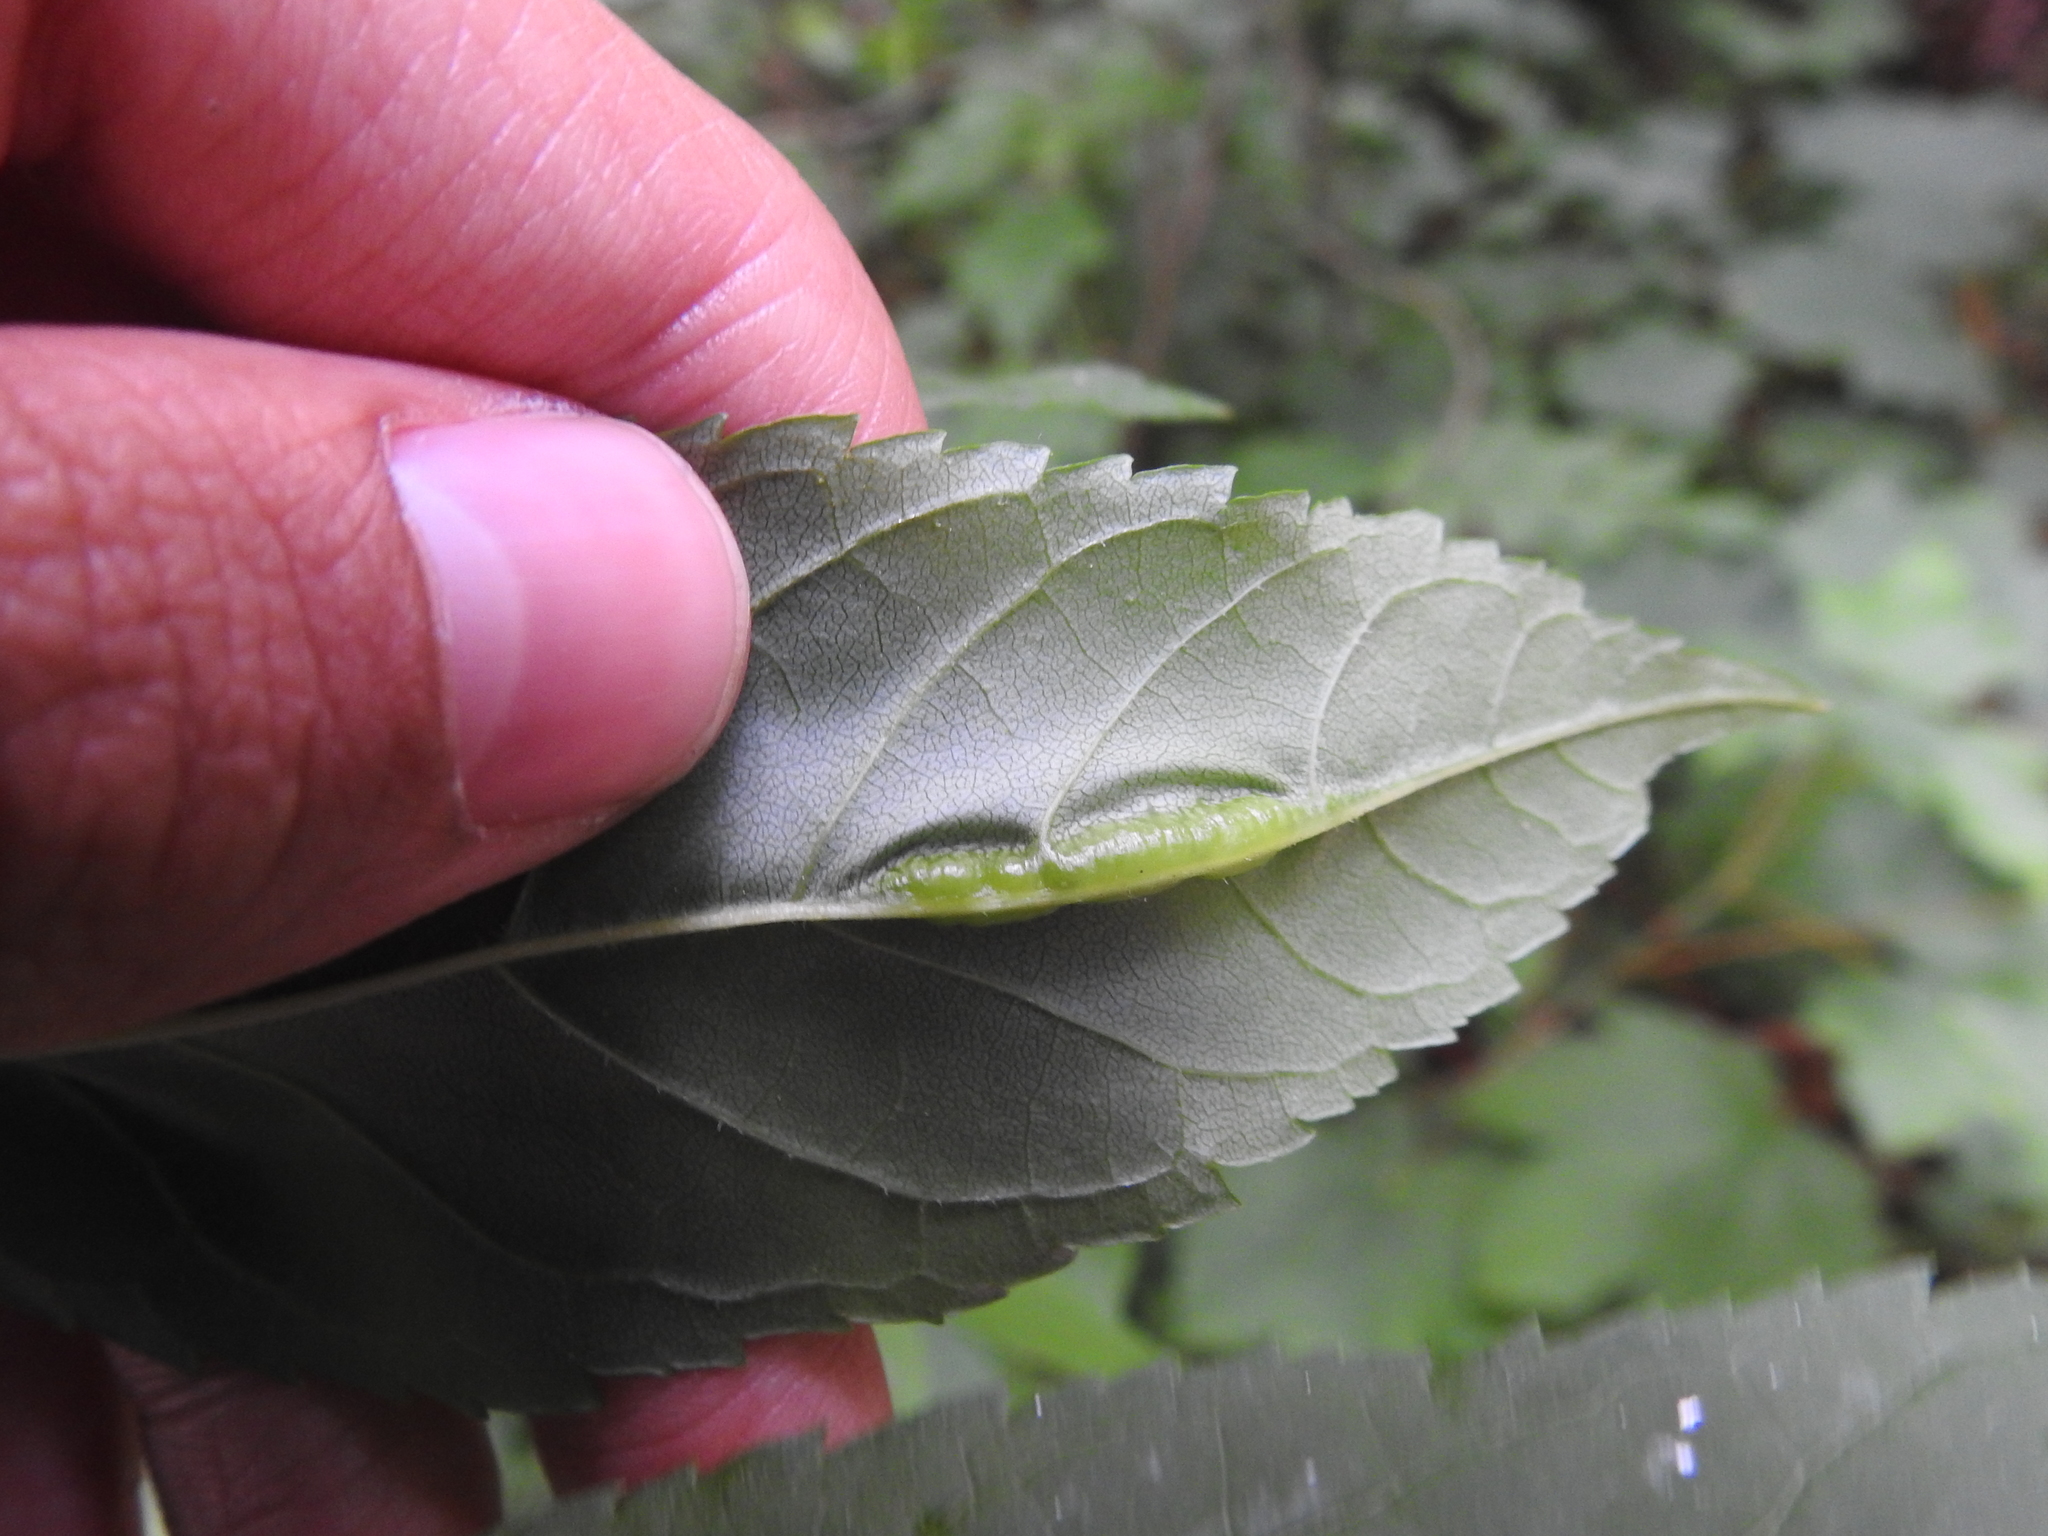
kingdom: Animalia
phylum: Arthropoda
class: Insecta
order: Diptera
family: Cecidomyiidae
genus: Dasineura
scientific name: Dasineura fraxini
